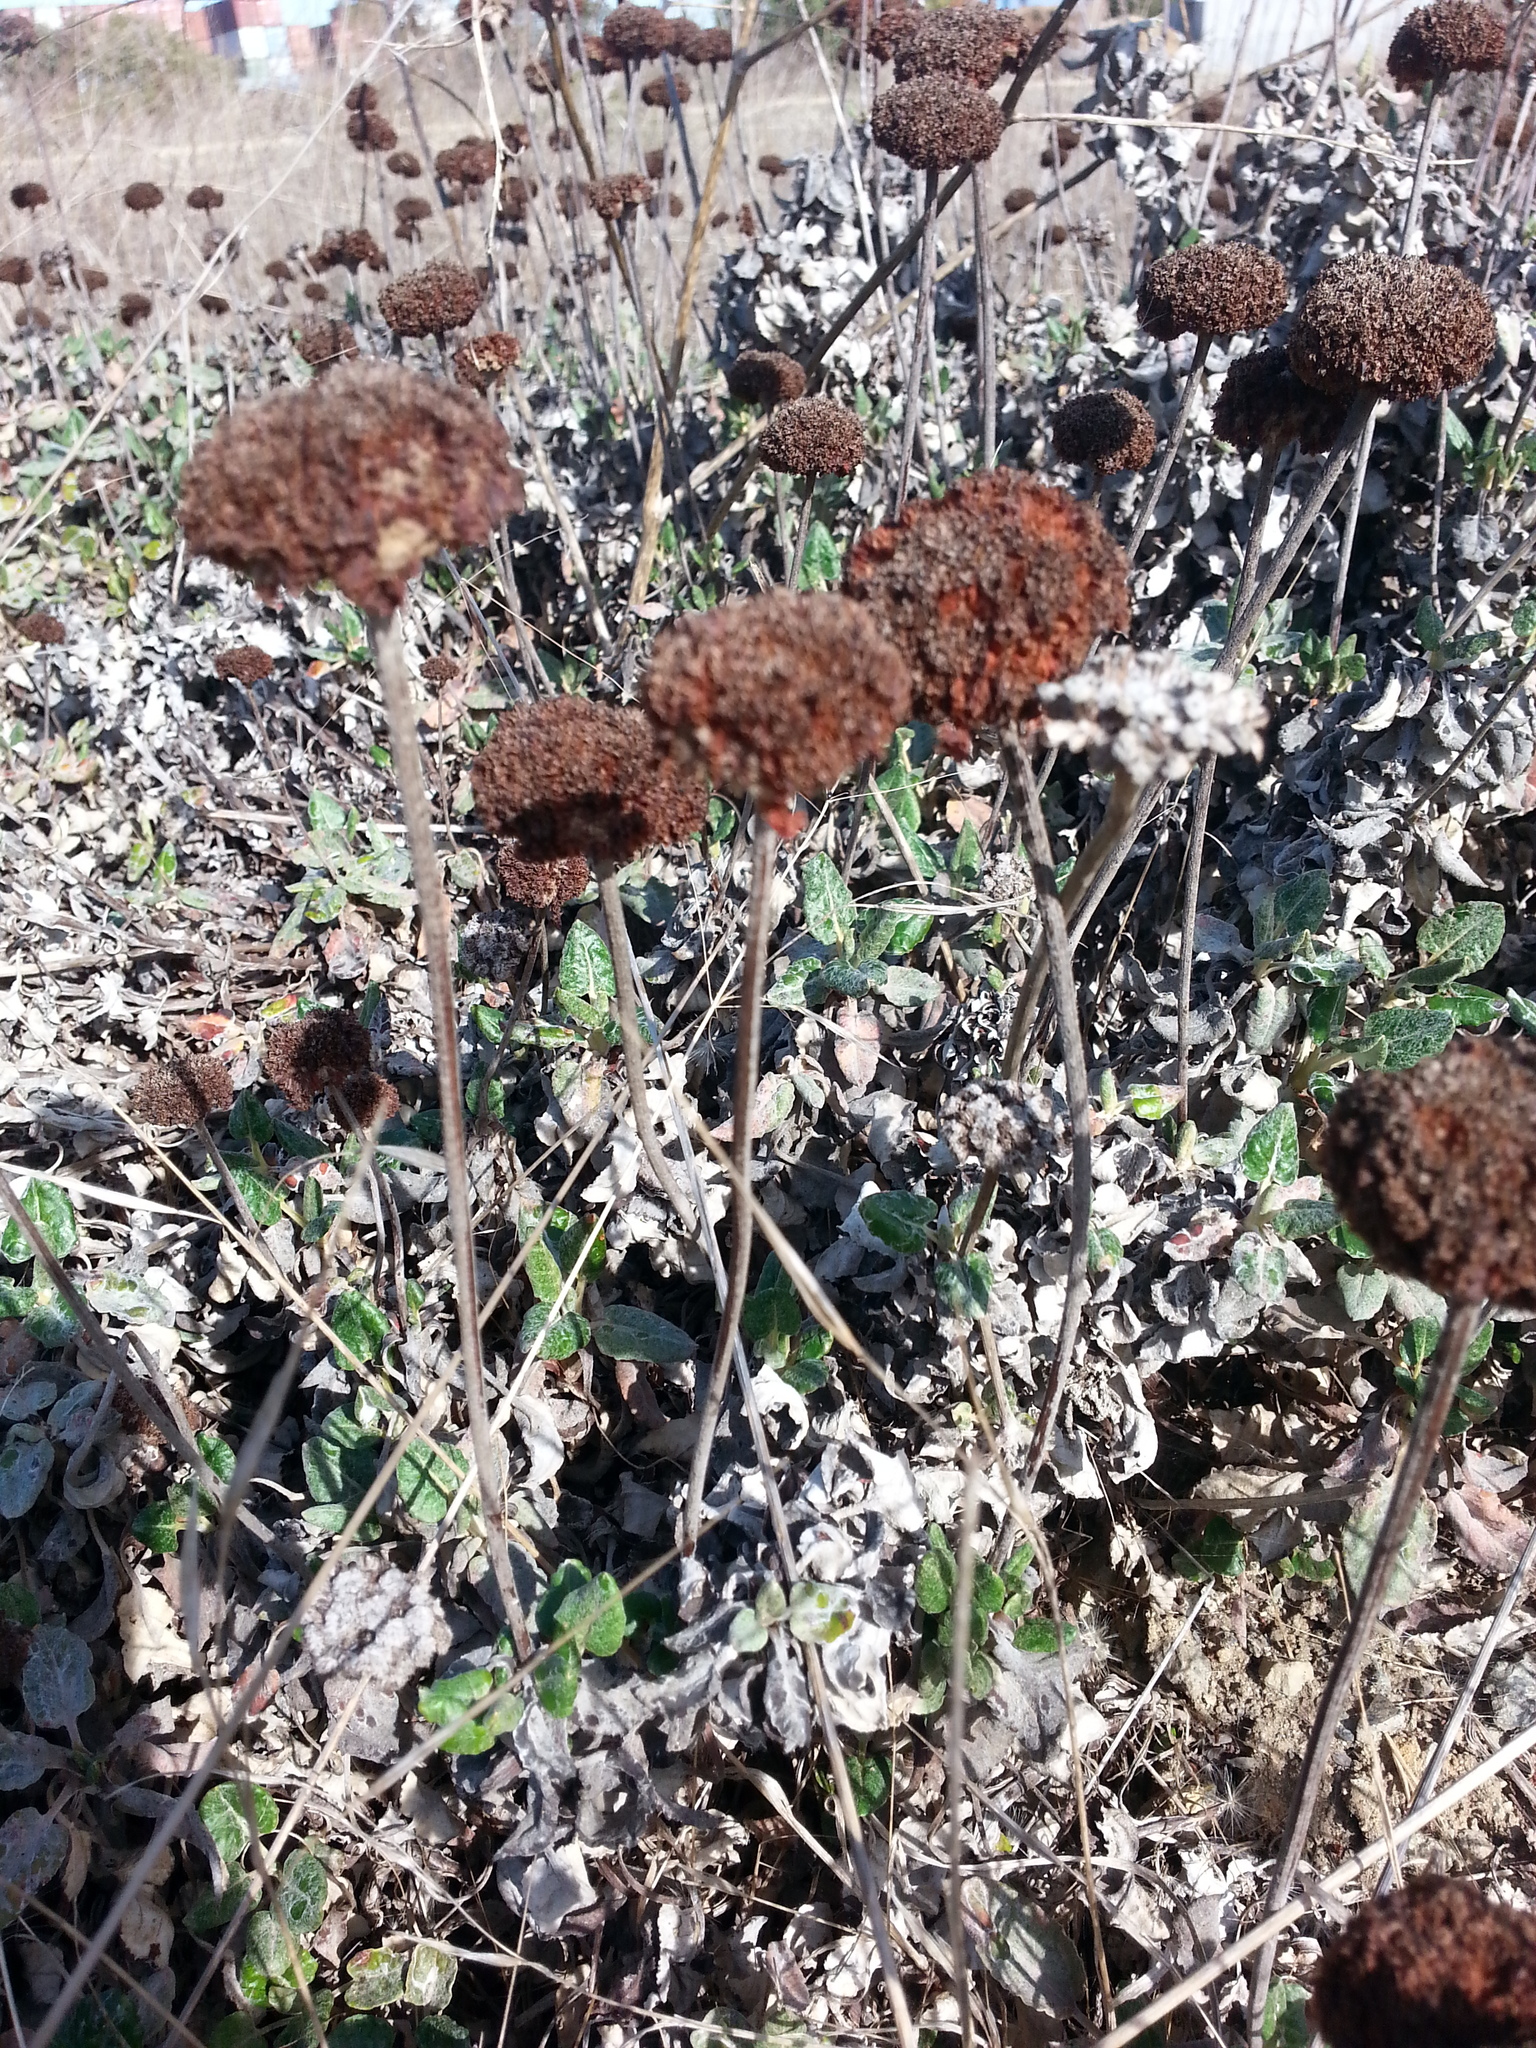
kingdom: Plantae
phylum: Tracheophyta
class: Magnoliopsida
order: Caryophyllales
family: Polygonaceae
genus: Eriogonum
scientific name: Eriogonum latifolium
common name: Seaside wild buckwheat
